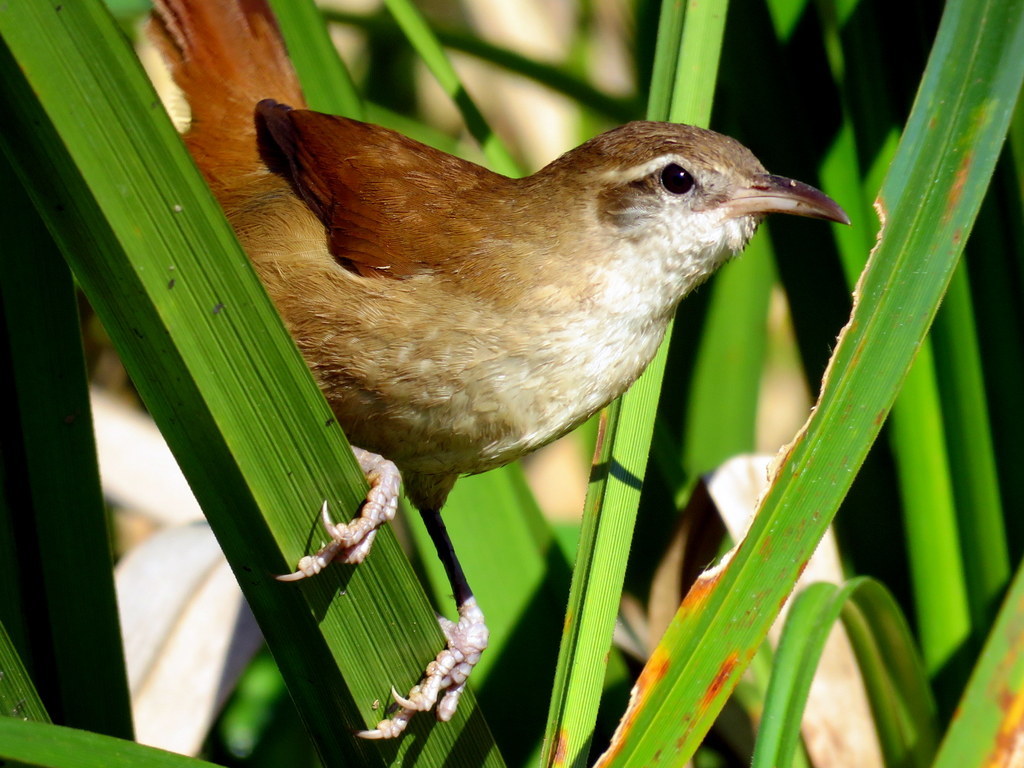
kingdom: Animalia
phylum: Chordata
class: Aves
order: Passeriformes
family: Furnariidae
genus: Limnornis
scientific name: Limnornis curvirostris
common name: Curve-billed reedhaunter
